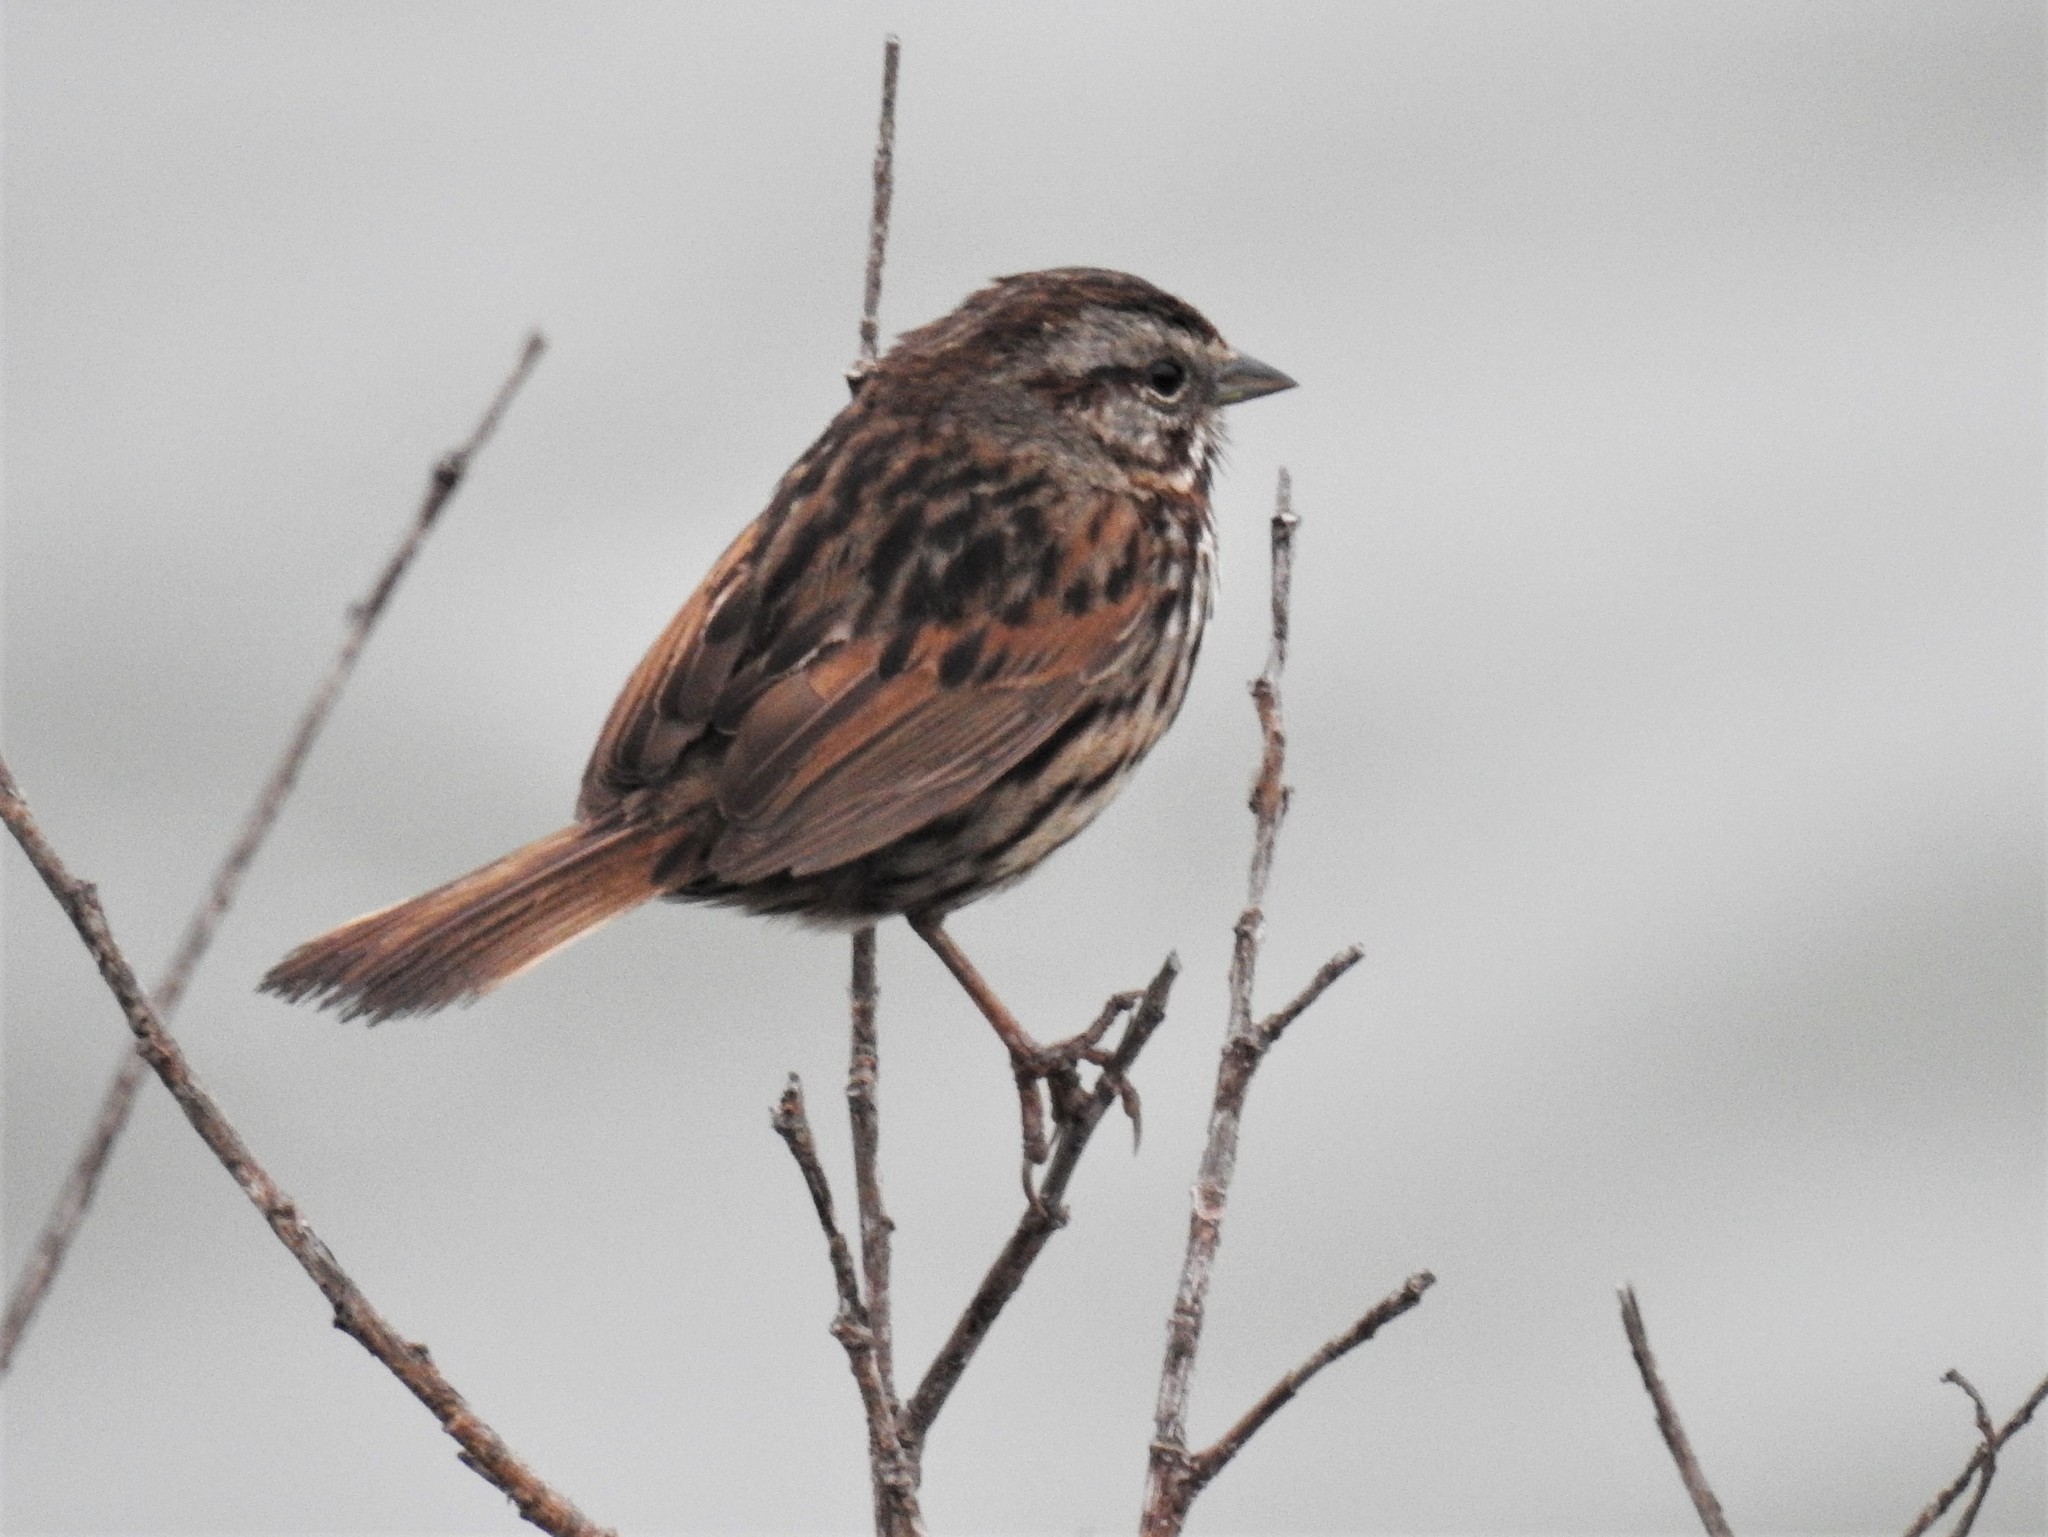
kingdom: Animalia
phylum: Chordata
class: Aves
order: Passeriformes
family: Passerellidae
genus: Melospiza
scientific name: Melospiza melodia
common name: Song sparrow
